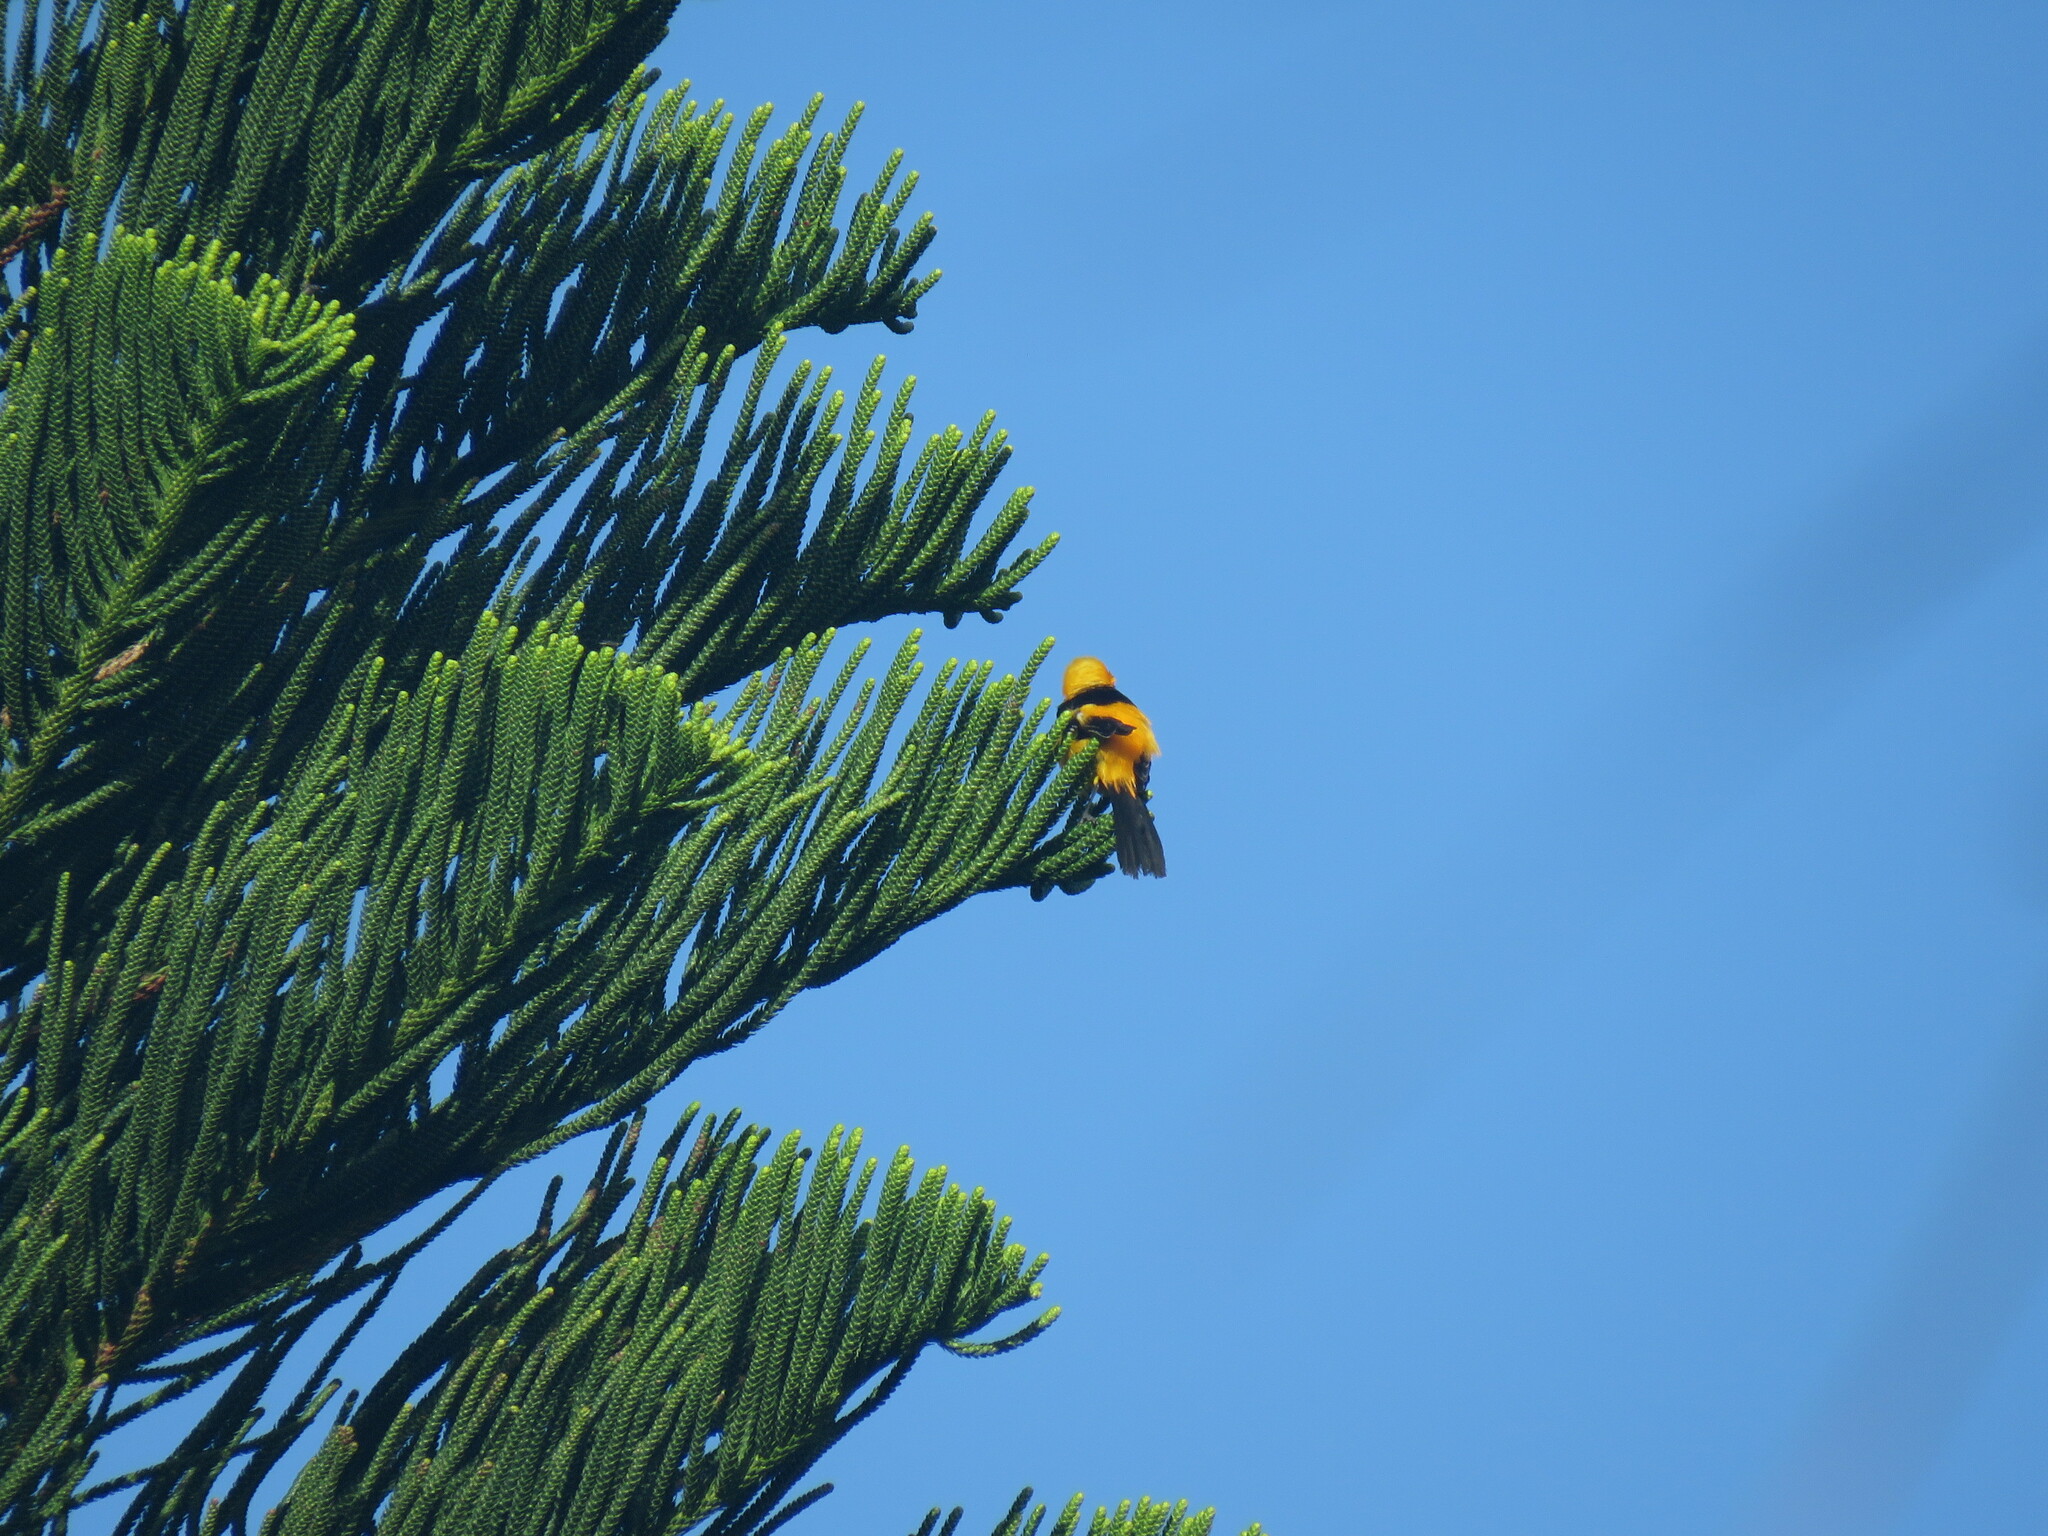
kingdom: Animalia
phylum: Chordata
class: Aves
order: Passeriformes
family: Icteridae
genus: Icterus
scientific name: Icterus cucullatus
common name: Hooded oriole
